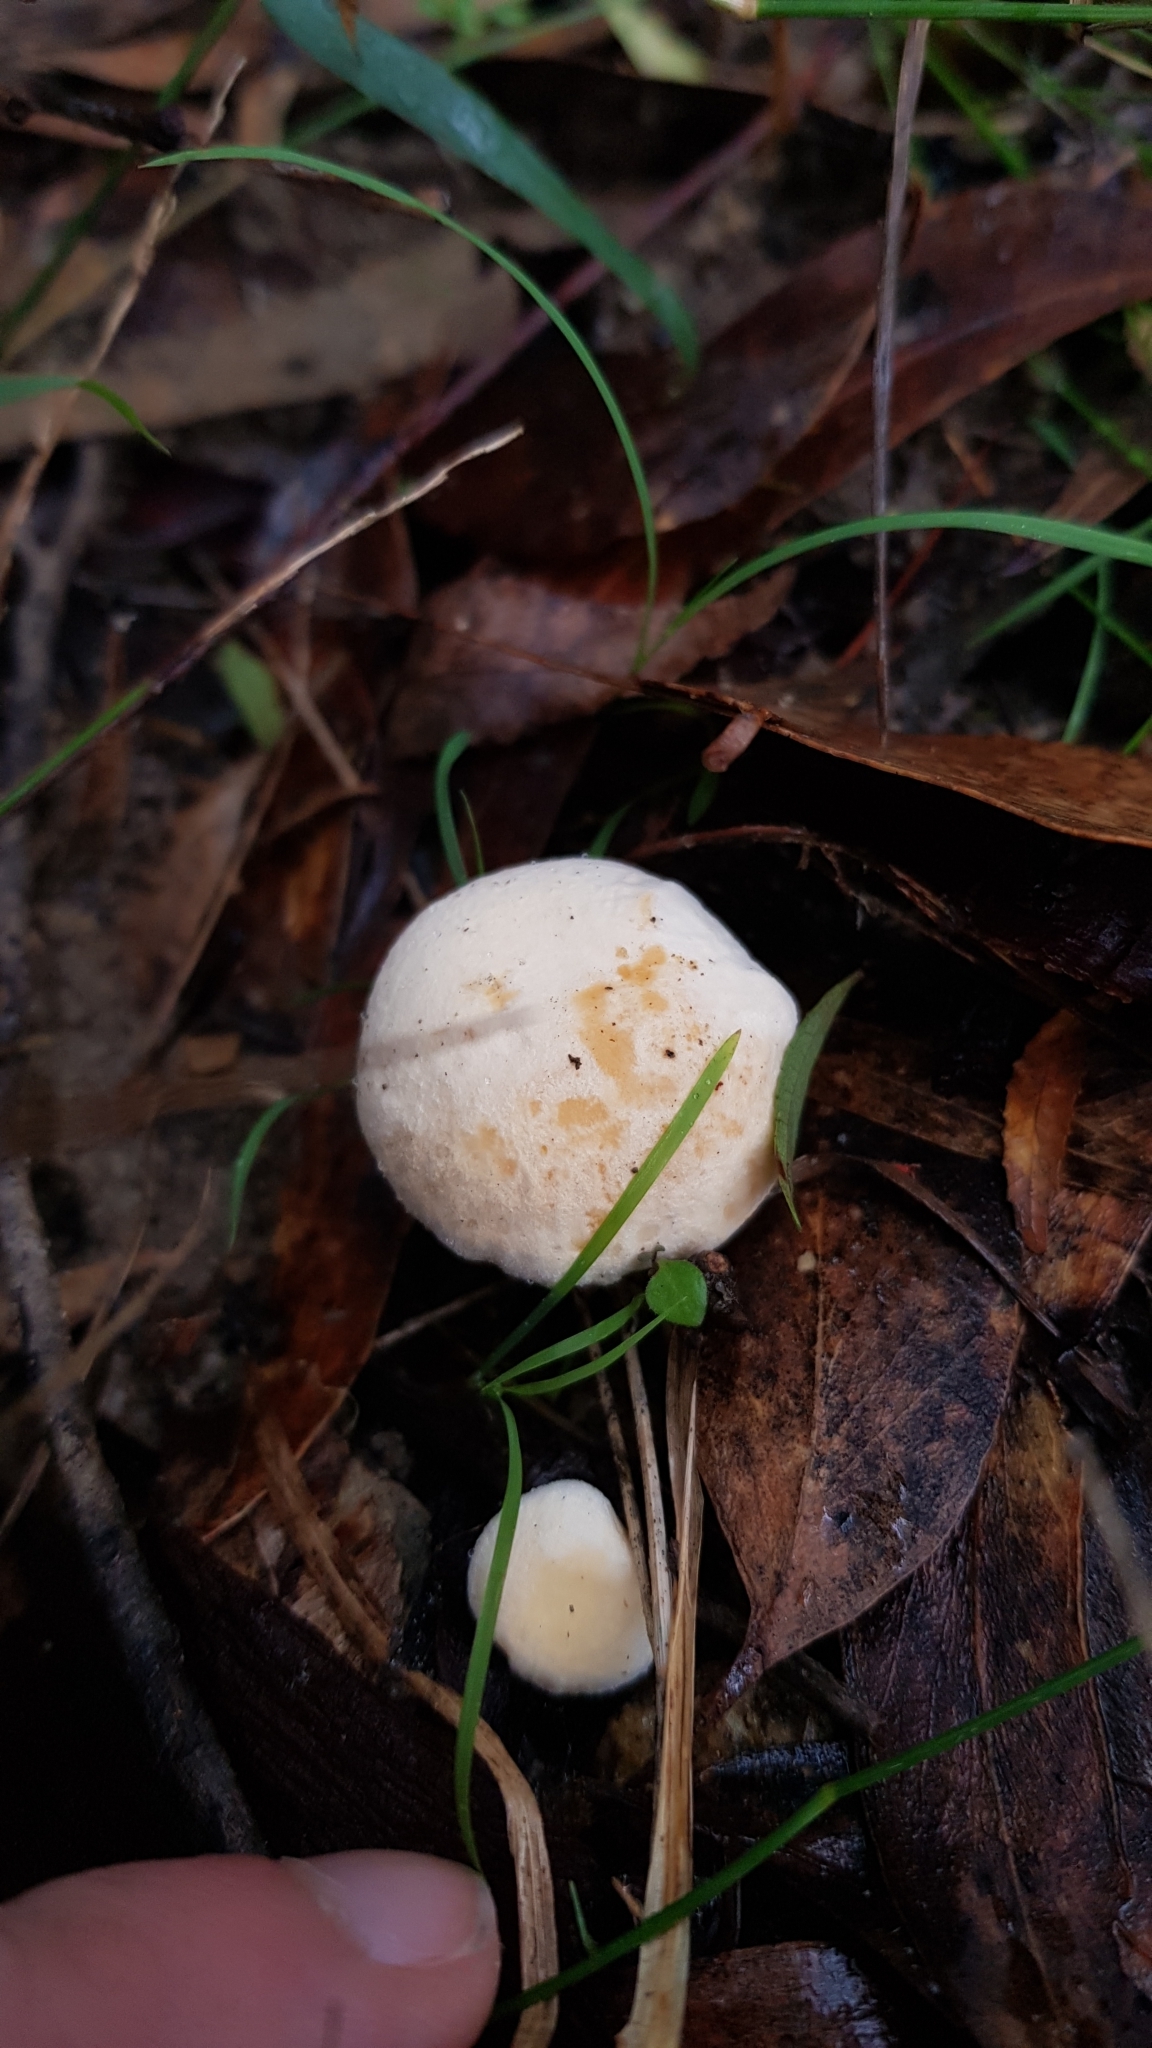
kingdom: Fungi
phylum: Basidiomycota
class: Agaricomycetes
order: Cantharellales
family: Hydnaceae
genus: Hydnum
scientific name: Hydnum ambustum
